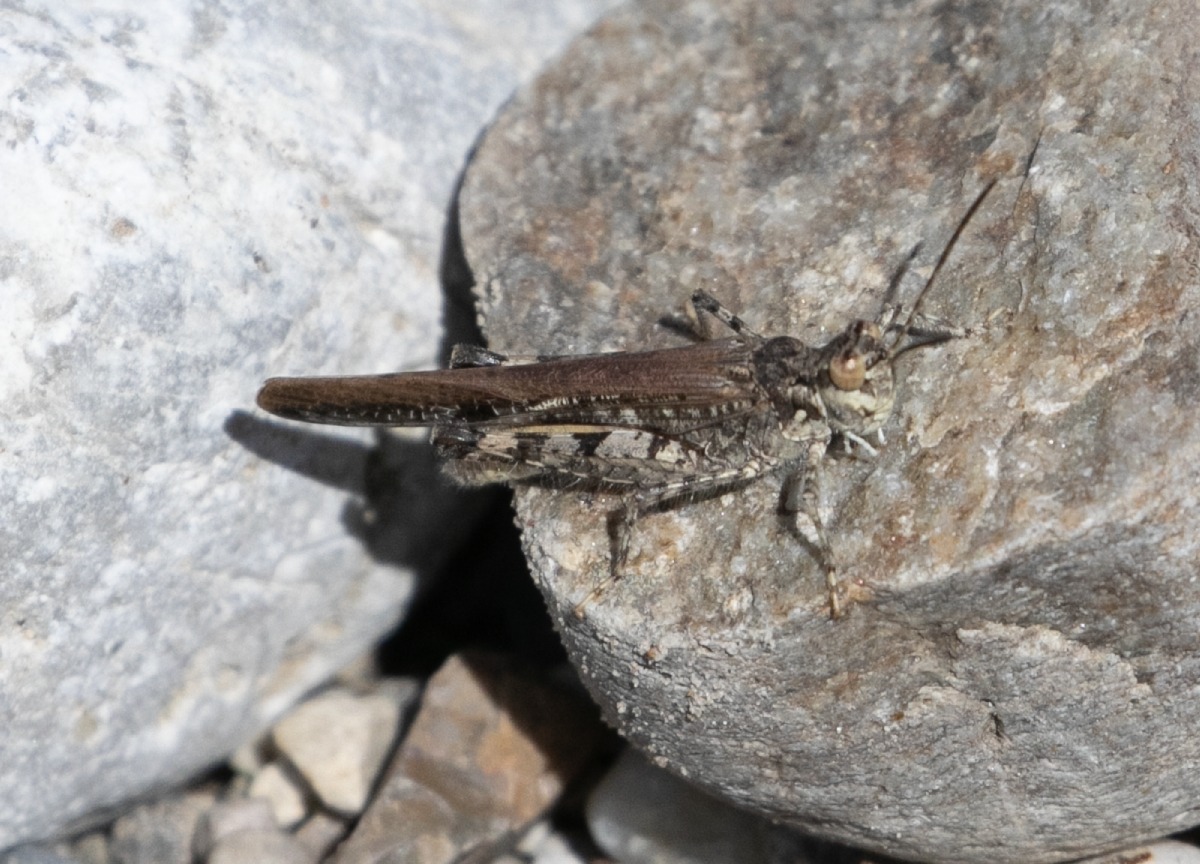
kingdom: Animalia
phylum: Arthropoda
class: Insecta
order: Orthoptera
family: Acrididae
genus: Acrotylus
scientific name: Acrotylus patruelis
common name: Slender burrowing grasshopper
